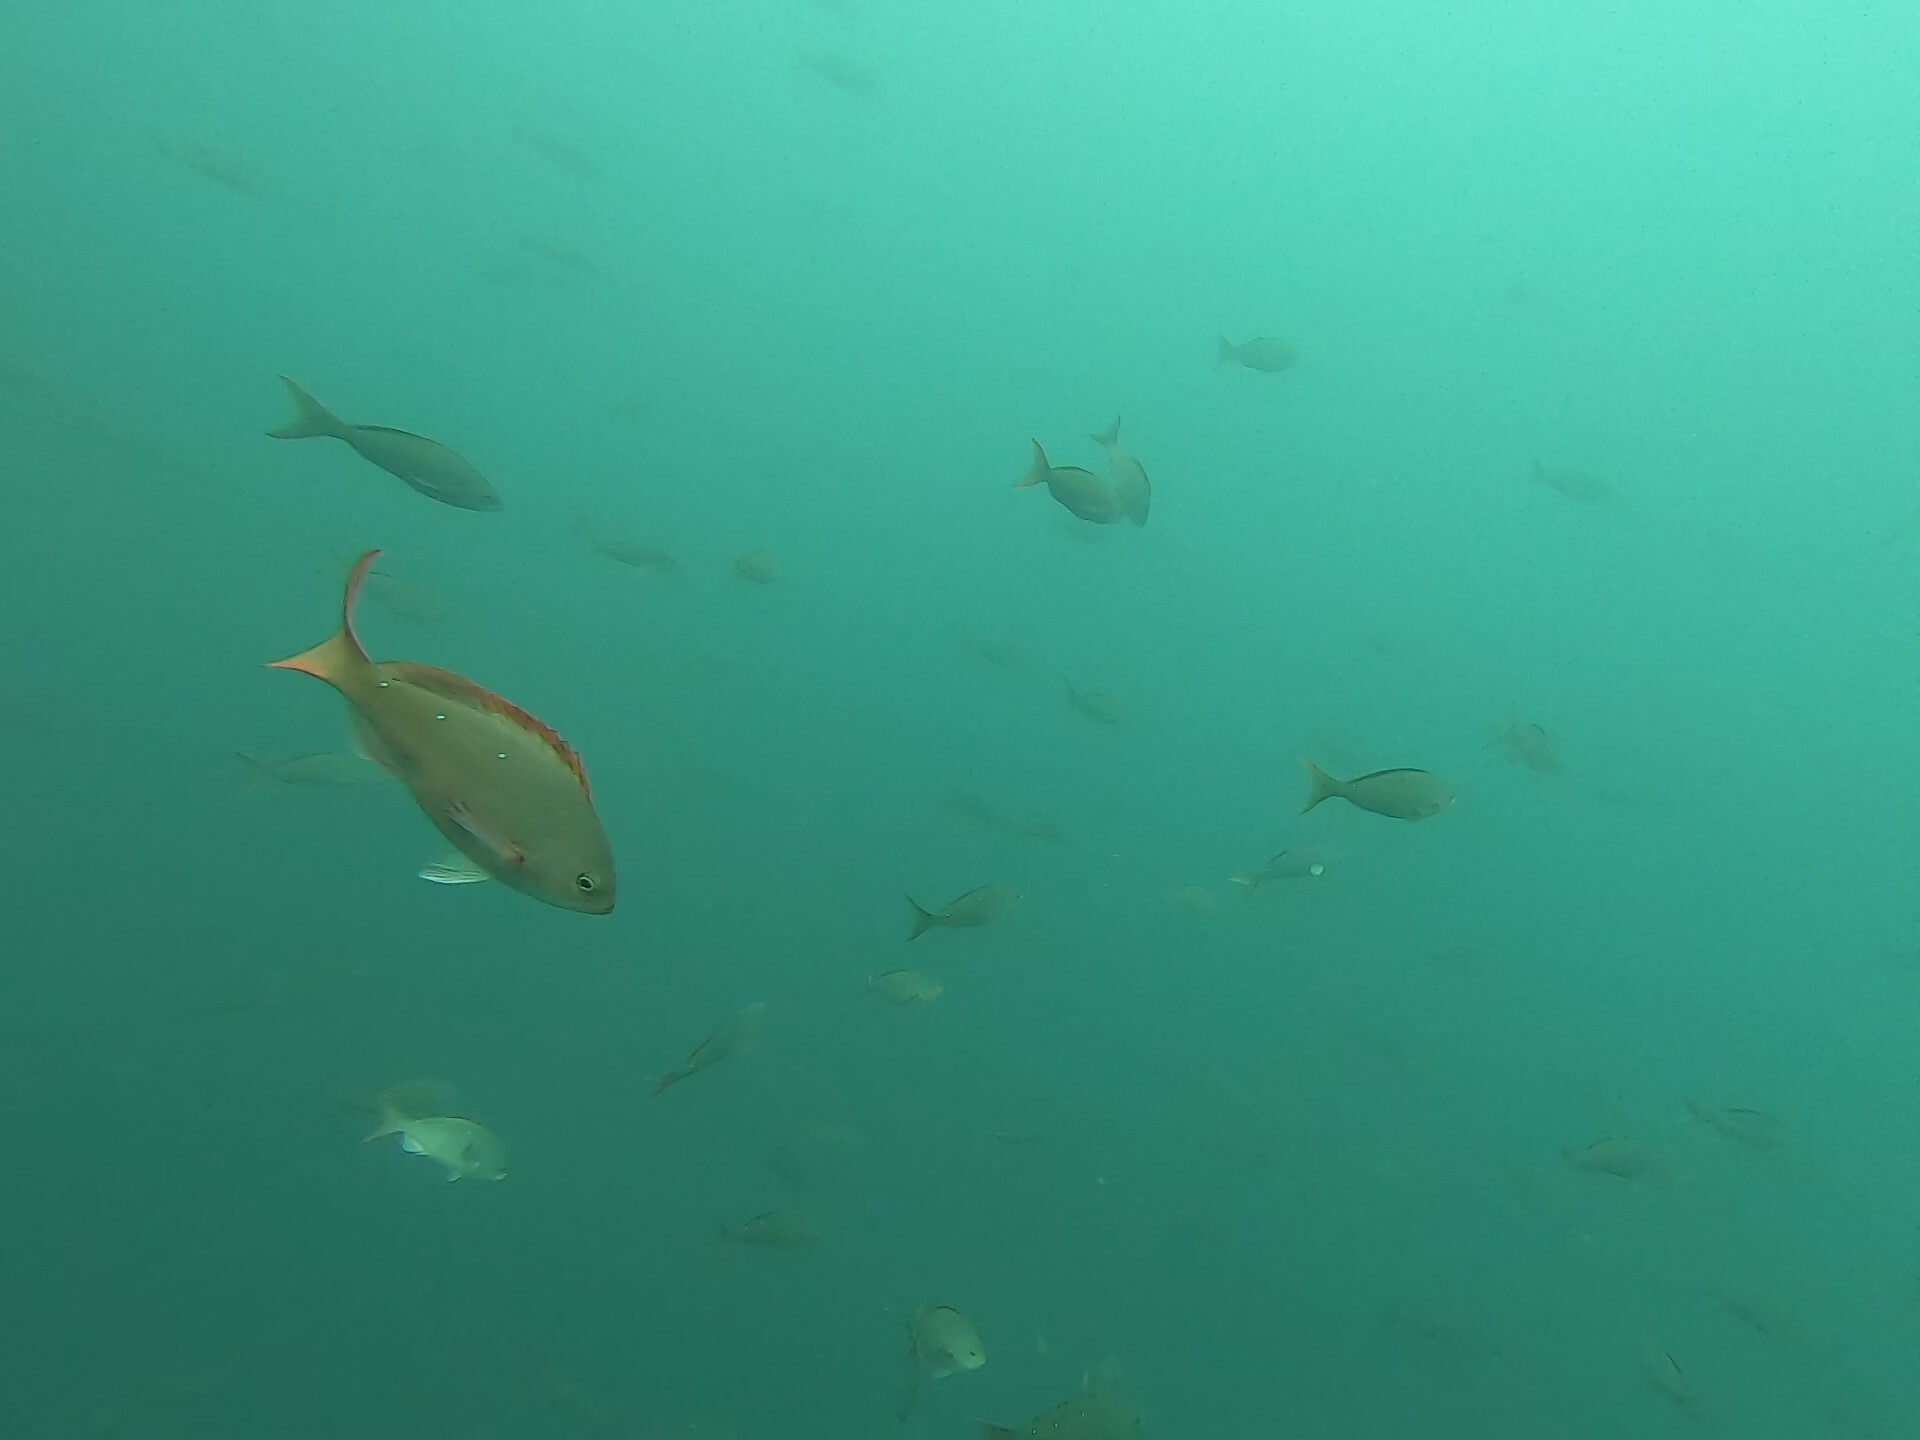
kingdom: Animalia
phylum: Chordata
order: Perciformes
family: Serranidae
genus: Paranthias
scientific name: Paranthias colonus
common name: Pacific creole-fish
